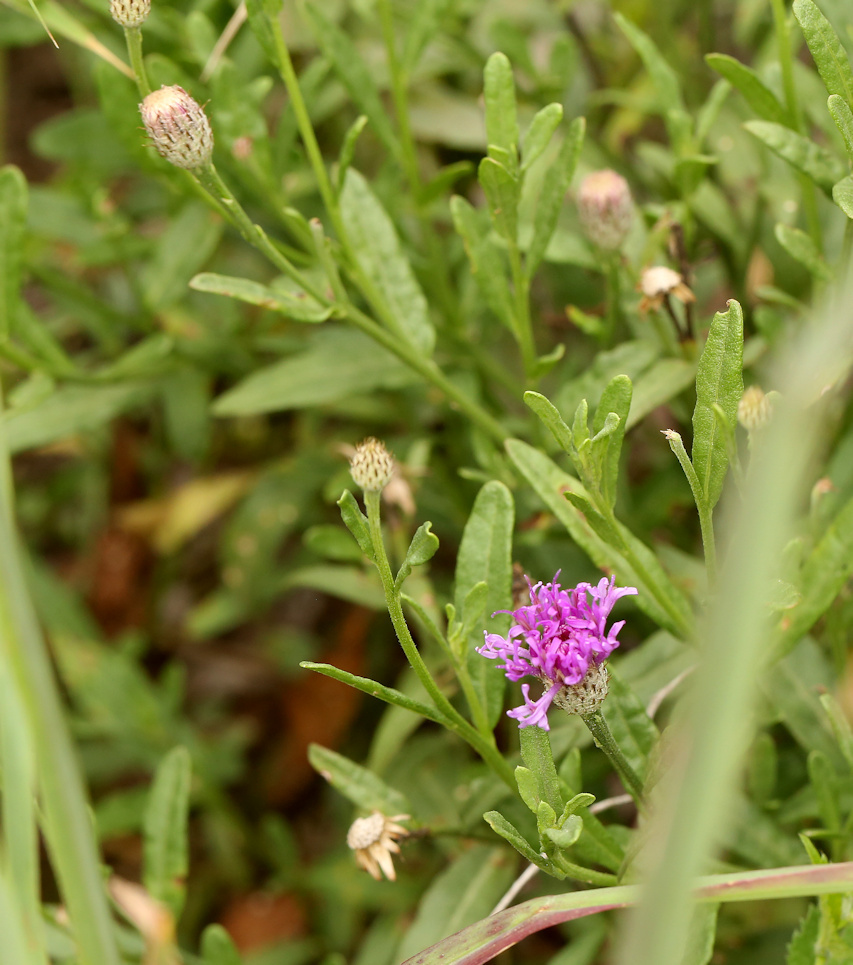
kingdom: Plantae
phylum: Tracheophyta
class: Magnoliopsida
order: Asterales
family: Asteraceae
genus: Parapolydora
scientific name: Parapolydora fastigiata
